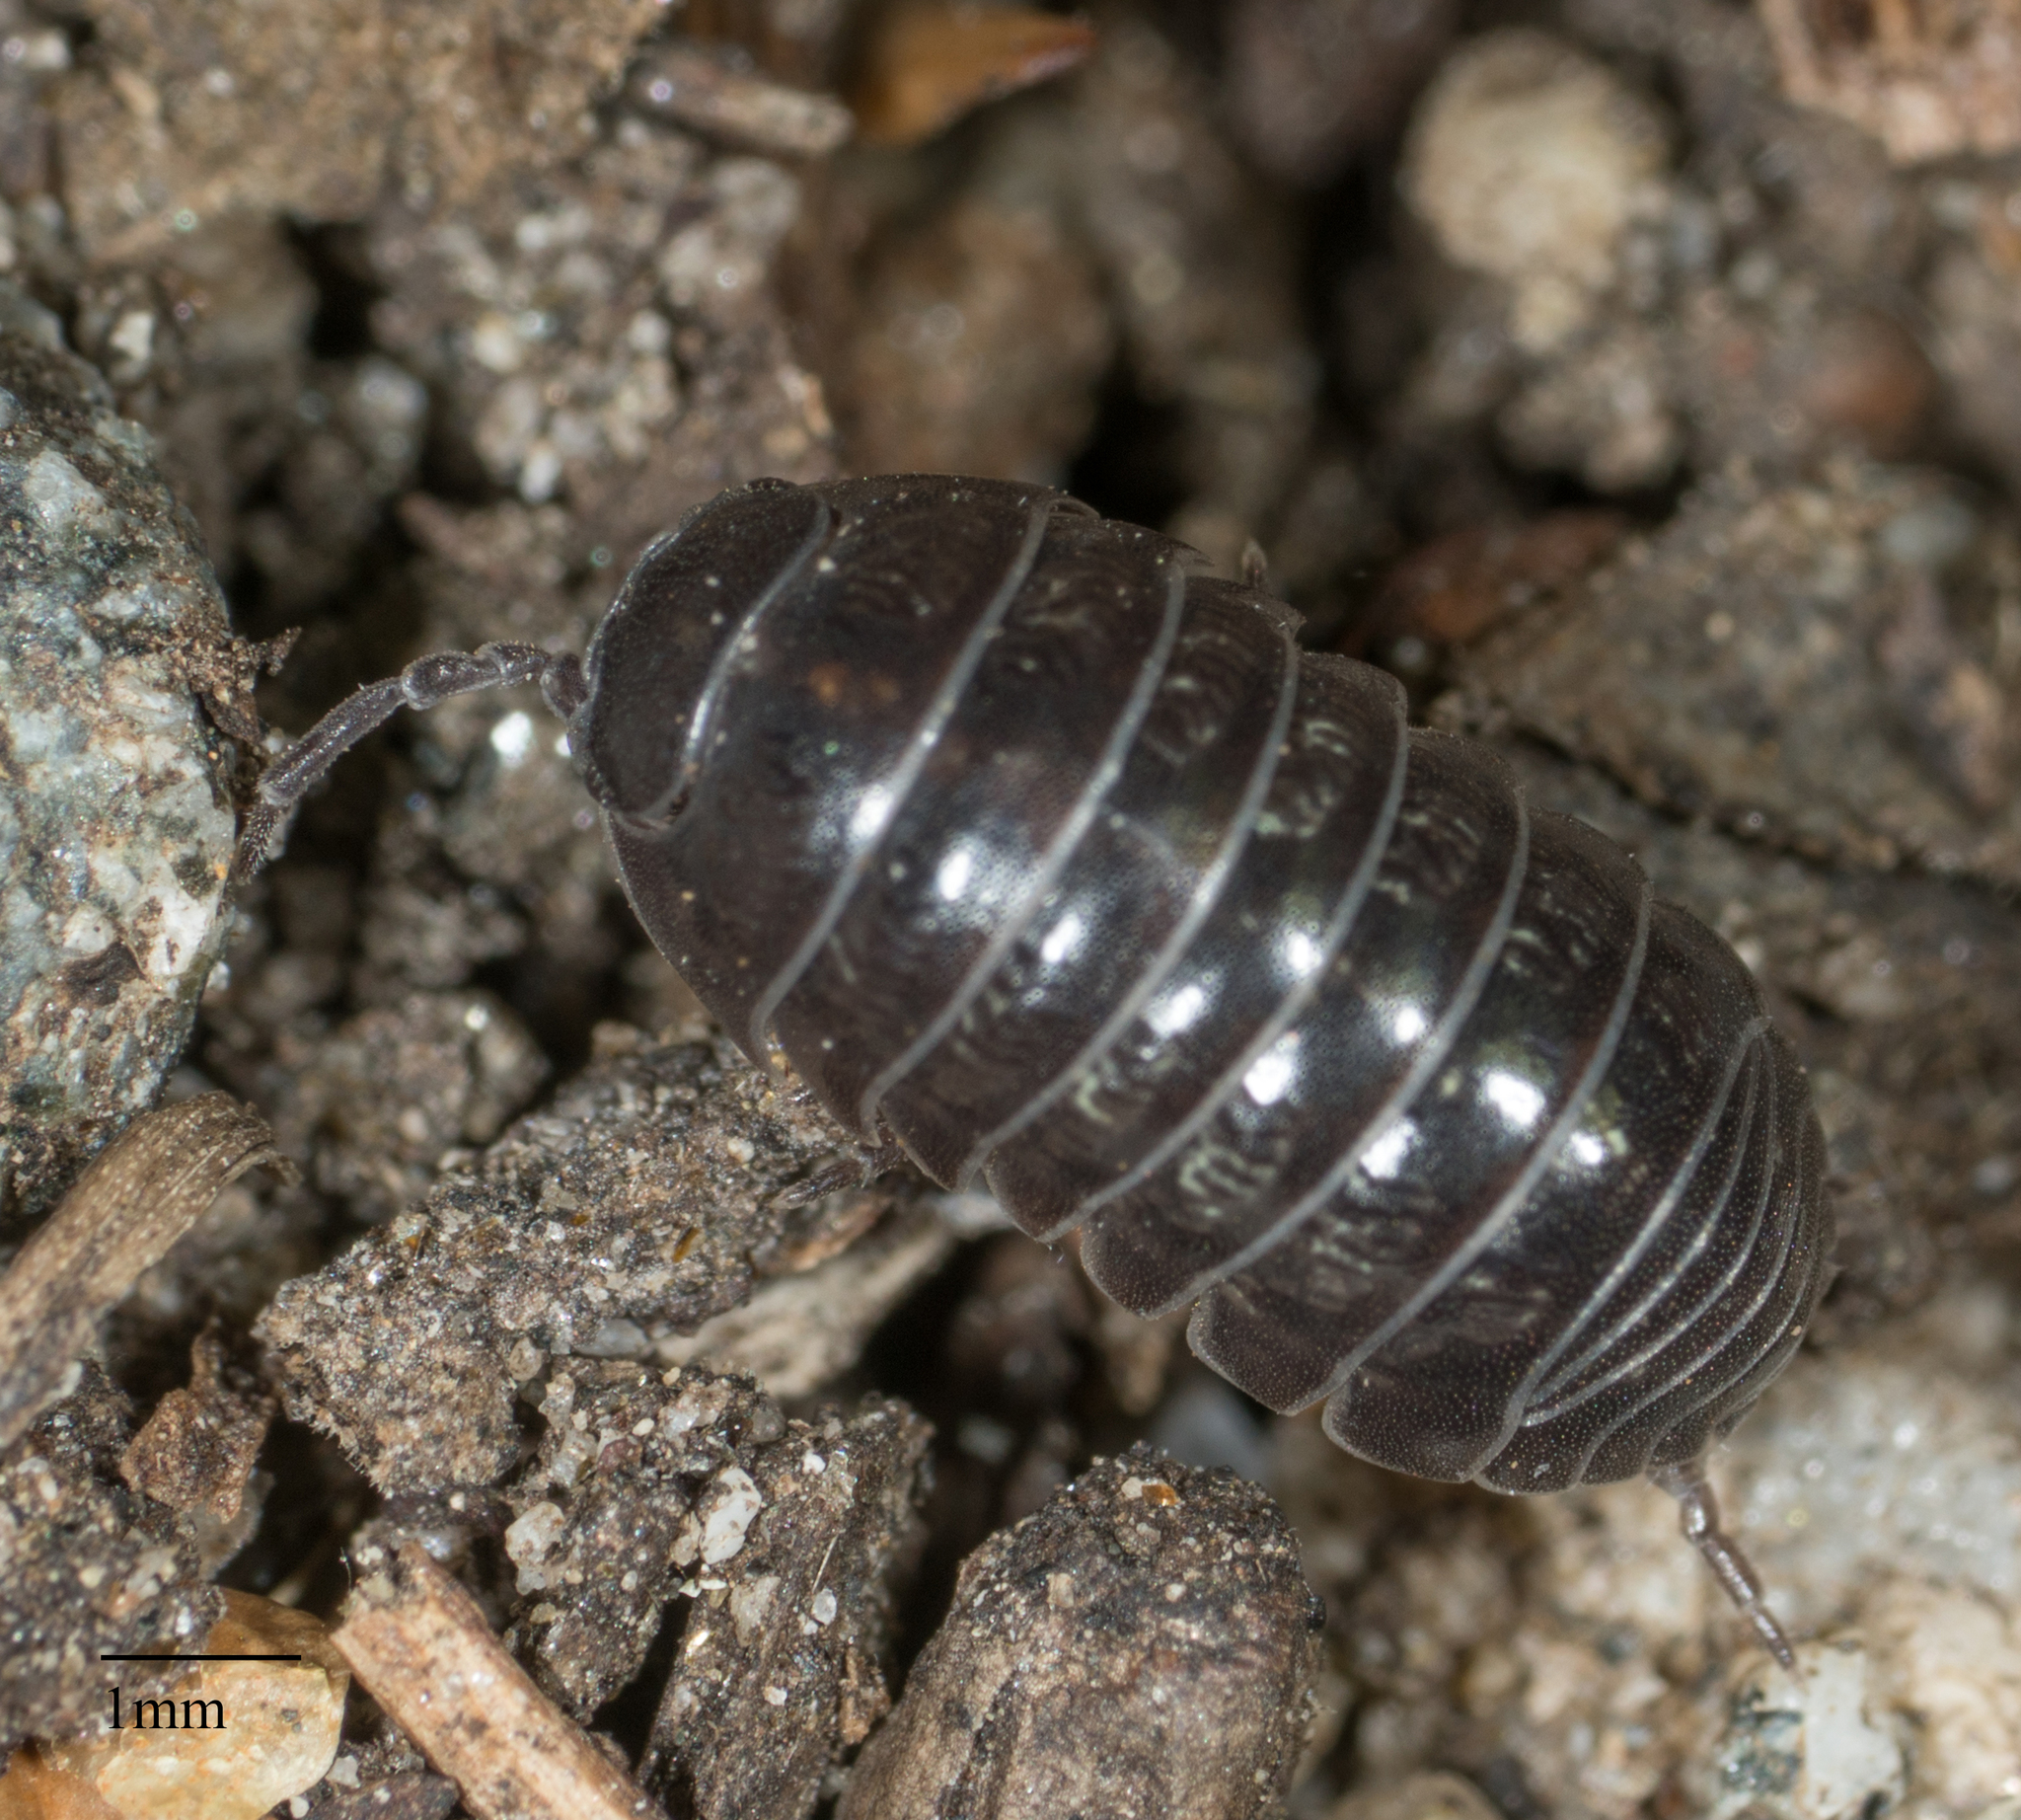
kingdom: Animalia
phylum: Arthropoda
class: Malacostraca
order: Isopoda
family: Armadillidiidae
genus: Armadillidium
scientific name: Armadillidium vulgare
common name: Common pill woodlouse
